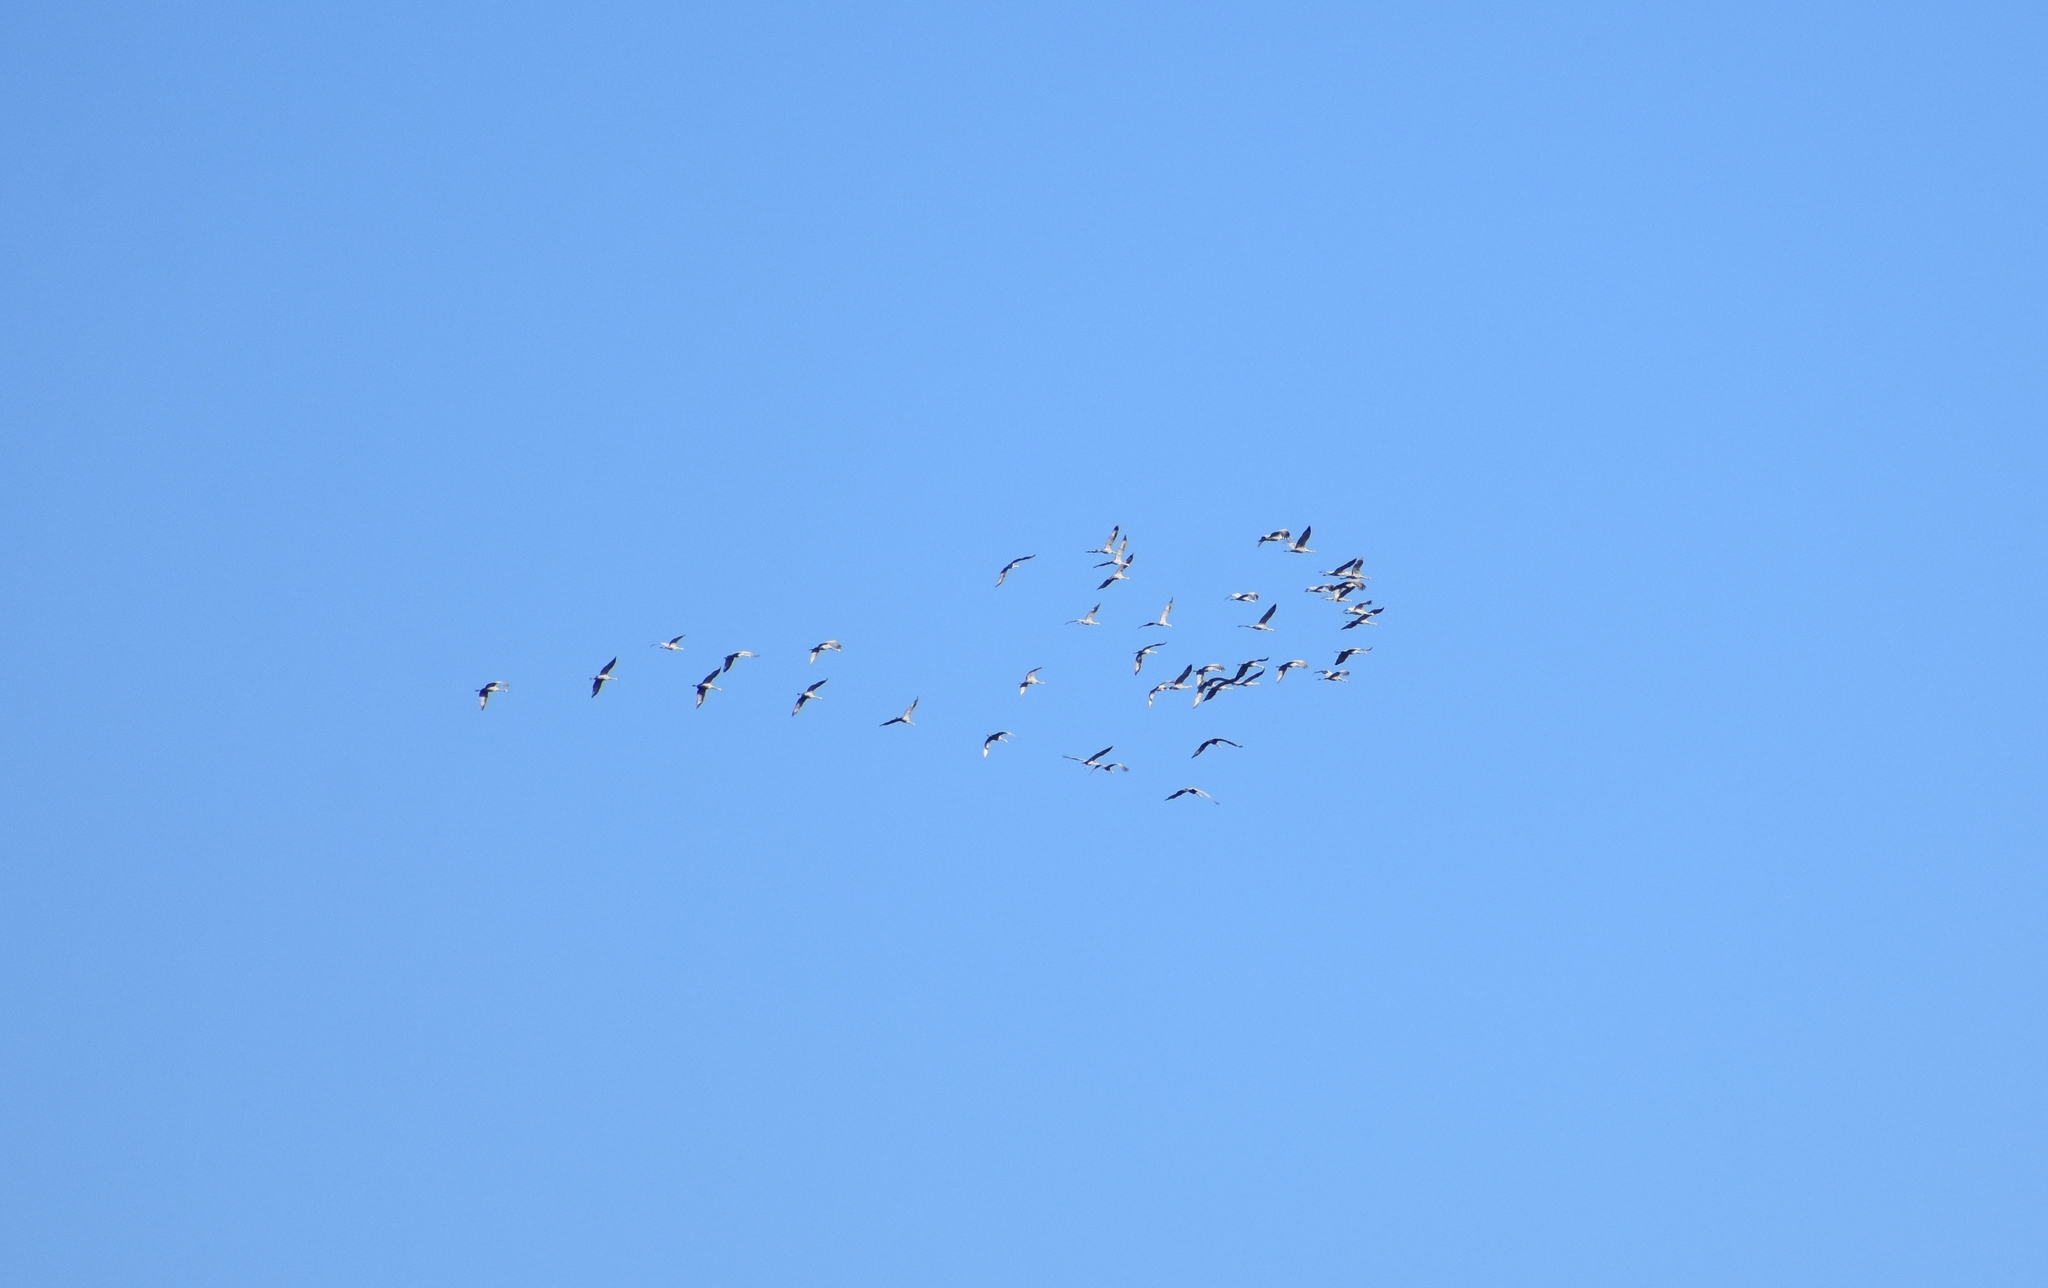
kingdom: Animalia
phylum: Chordata
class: Aves
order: Gruiformes
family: Gruidae
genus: Grus
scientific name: Grus canadensis
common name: Sandhill crane
